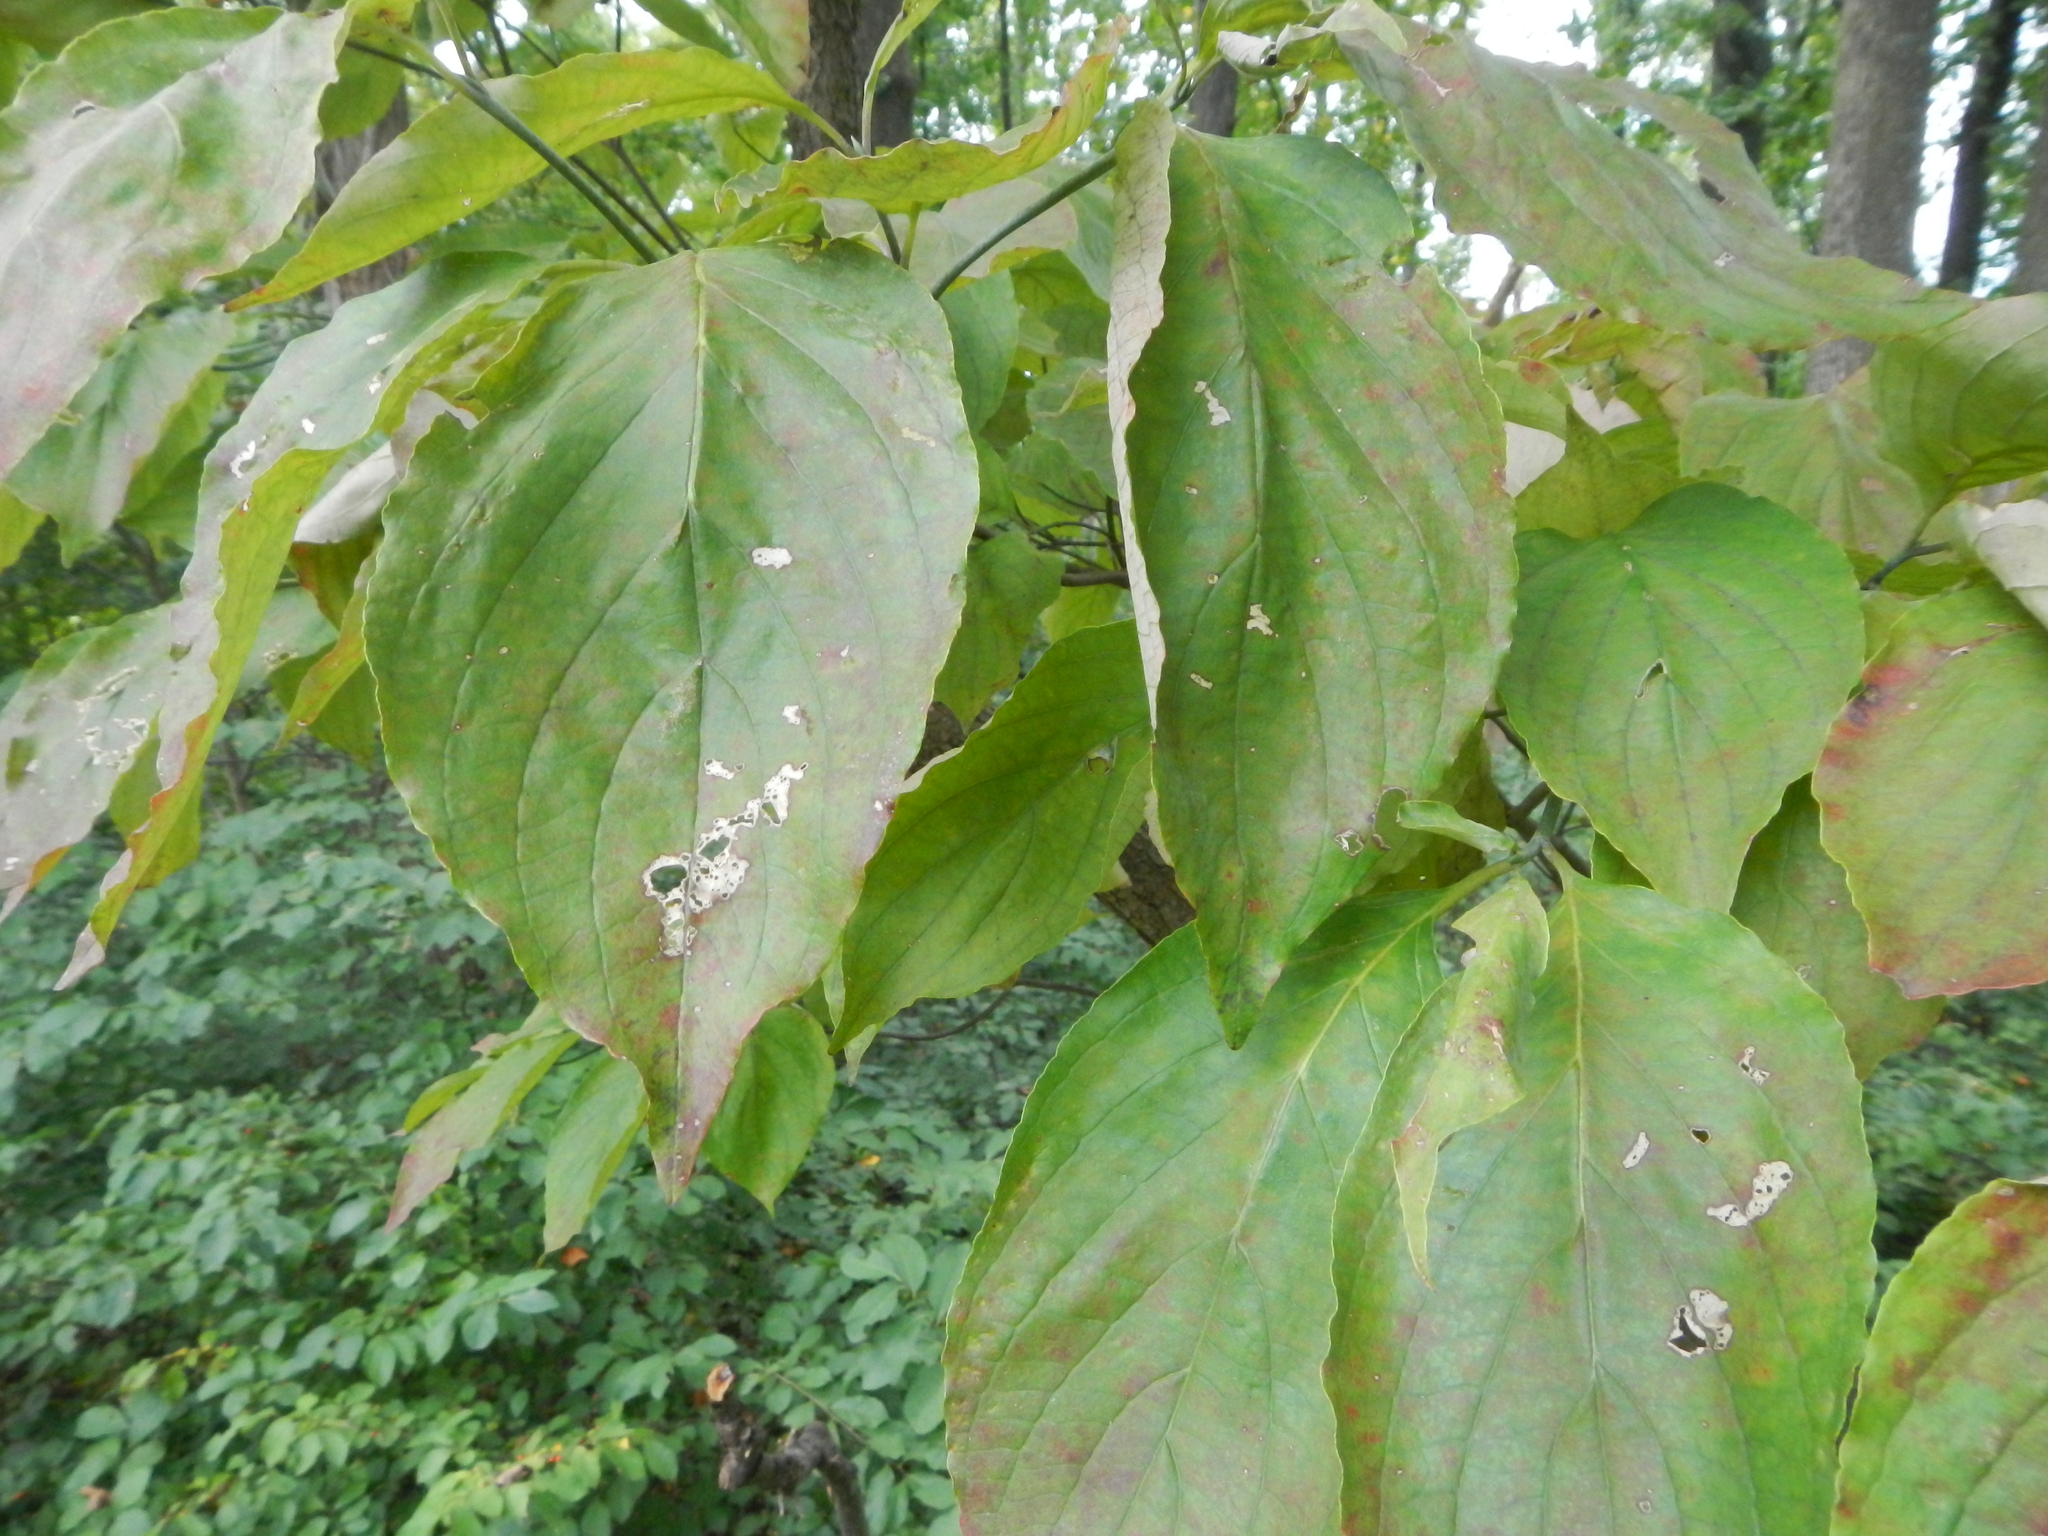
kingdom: Plantae
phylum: Tracheophyta
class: Magnoliopsida
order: Cornales
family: Cornaceae
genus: Cornus
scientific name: Cornus florida
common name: Flowering dogwood
